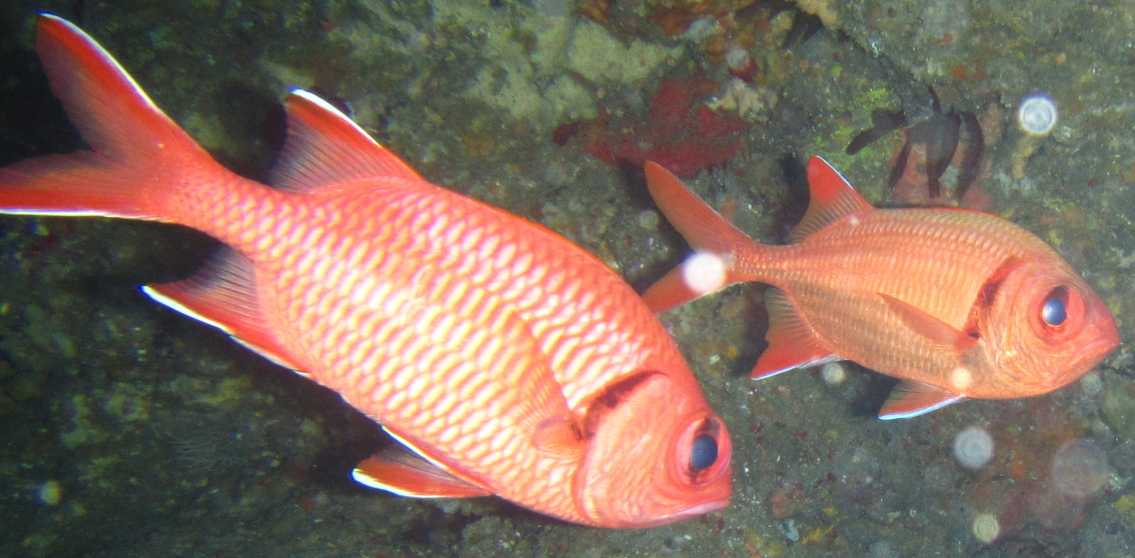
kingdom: Animalia
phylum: Chordata
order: Beryciformes
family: Holocentridae
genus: Myripristis
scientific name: Myripristis berndti
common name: Bigscale soldierfish
